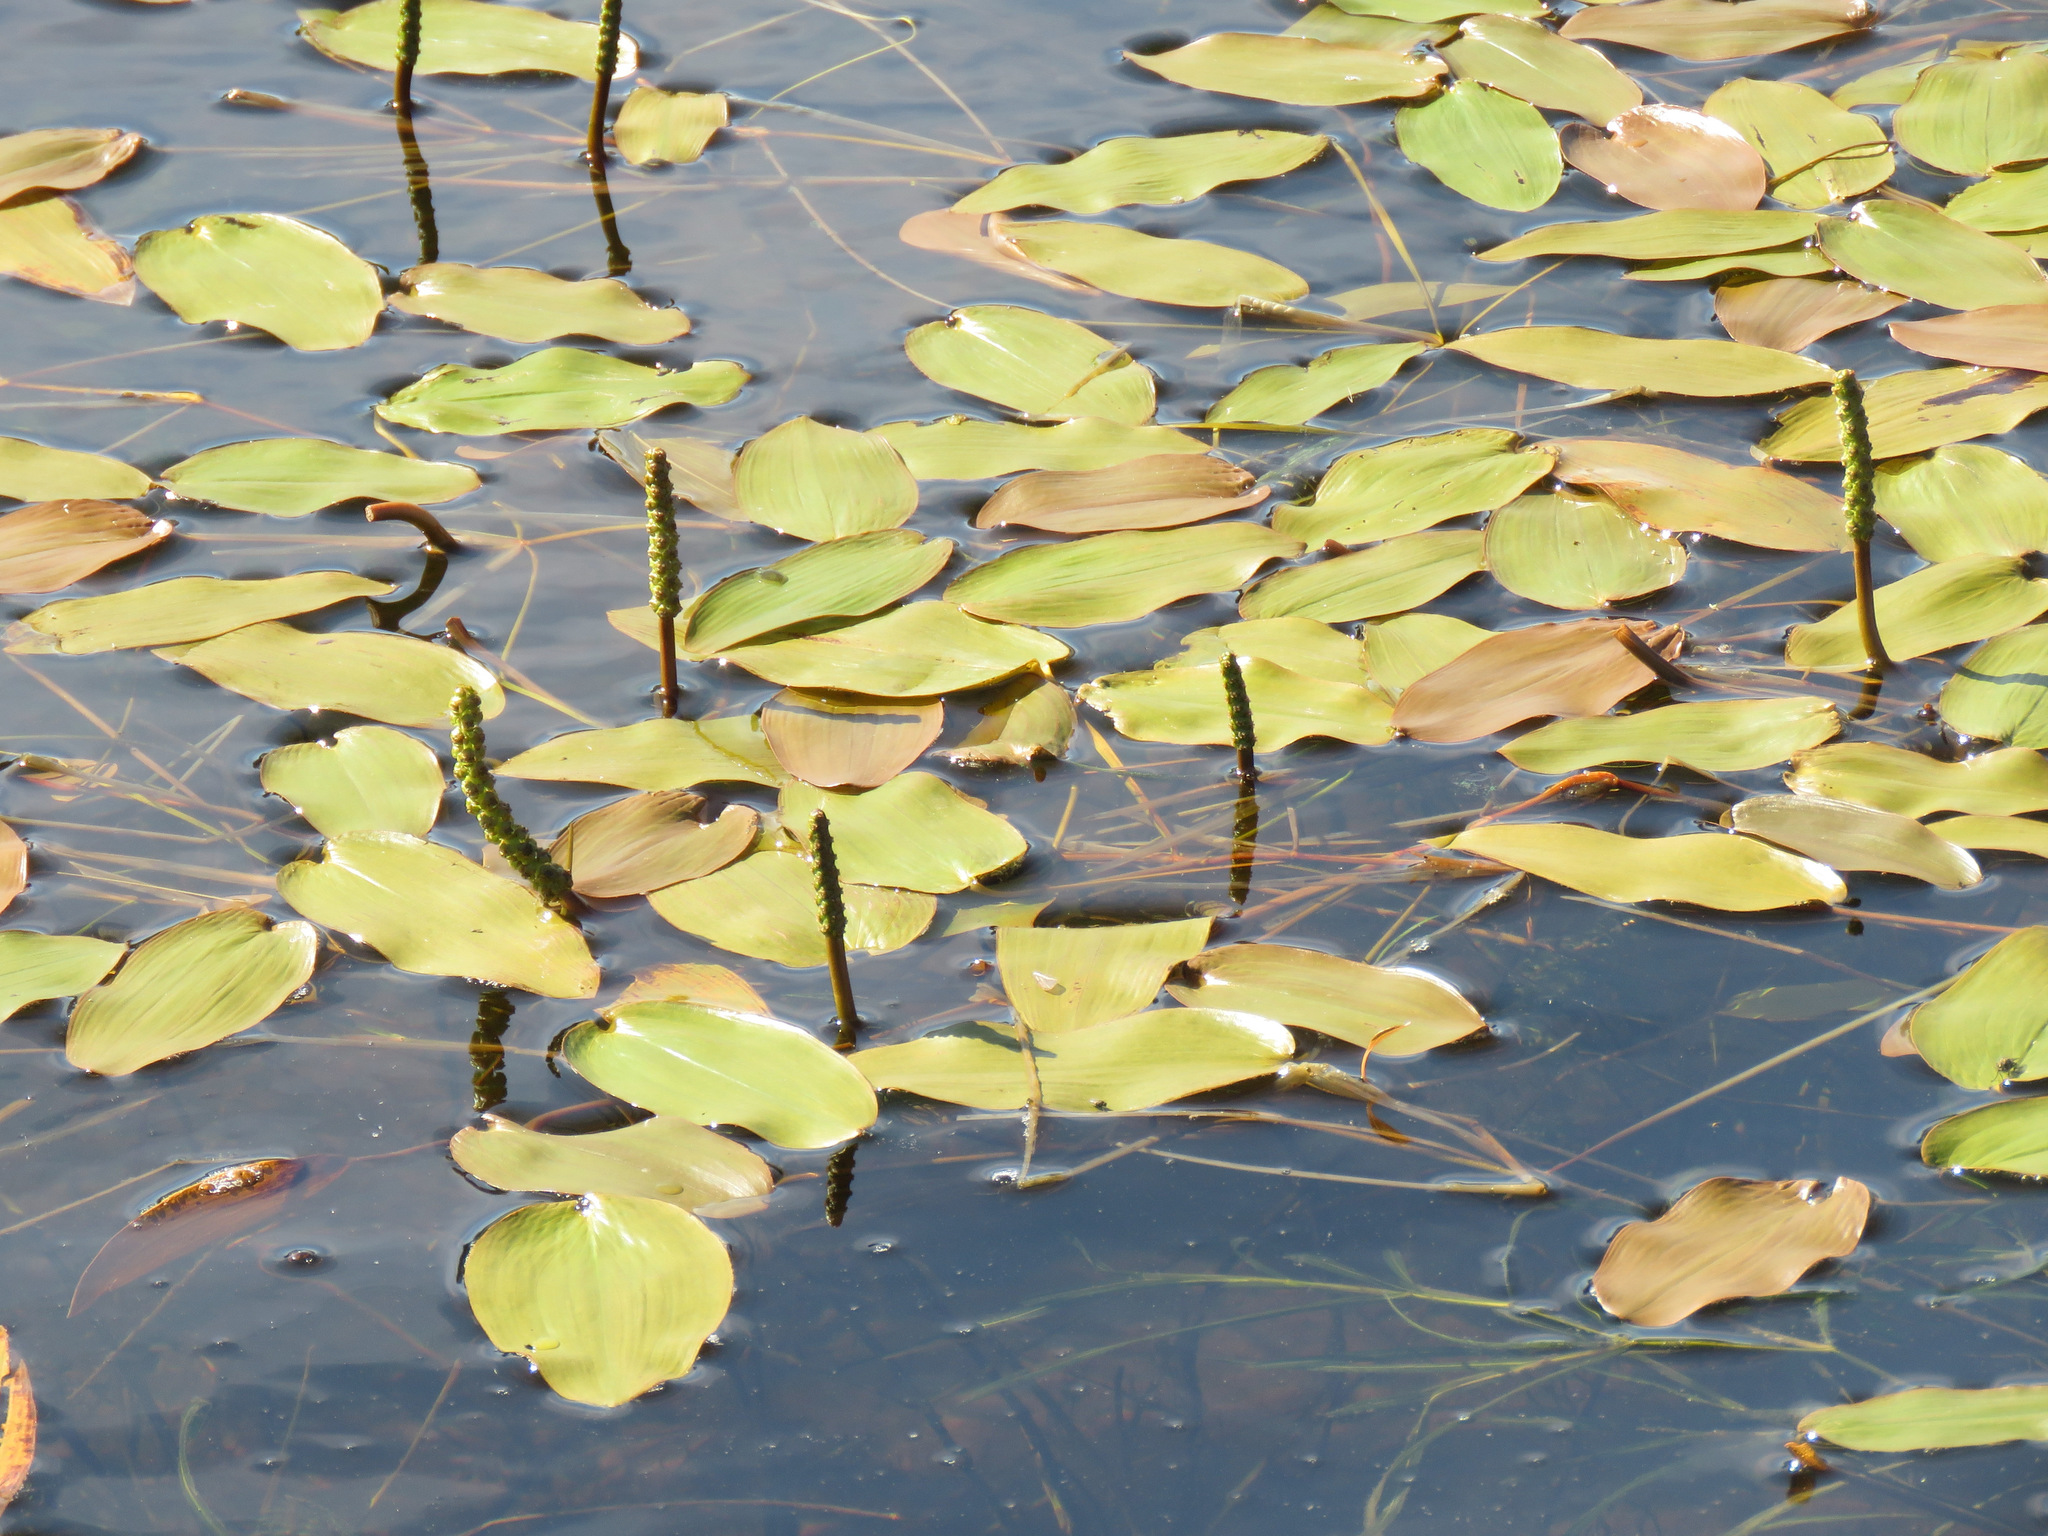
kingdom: Plantae
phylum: Tracheophyta
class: Liliopsida
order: Alismatales
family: Potamogetonaceae
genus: Potamogeton
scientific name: Potamogeton natans
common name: Broad-leaved pondweed
